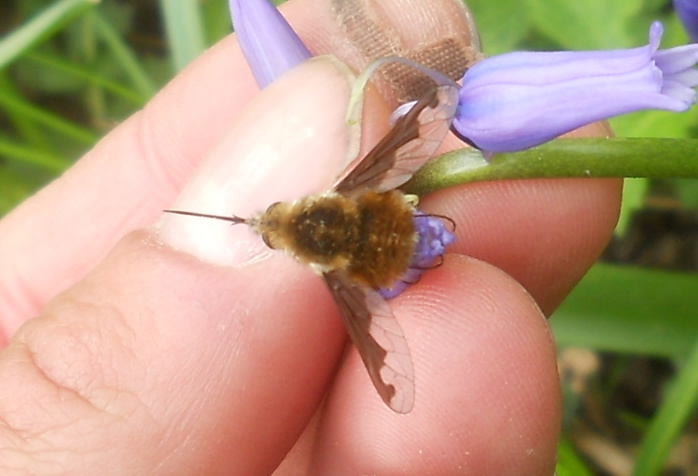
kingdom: Animalia
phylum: Arthropoda
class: Insecta
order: Diptera
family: Bombyliidae
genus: Bombylius
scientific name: Bombylius major
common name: Bee fly
